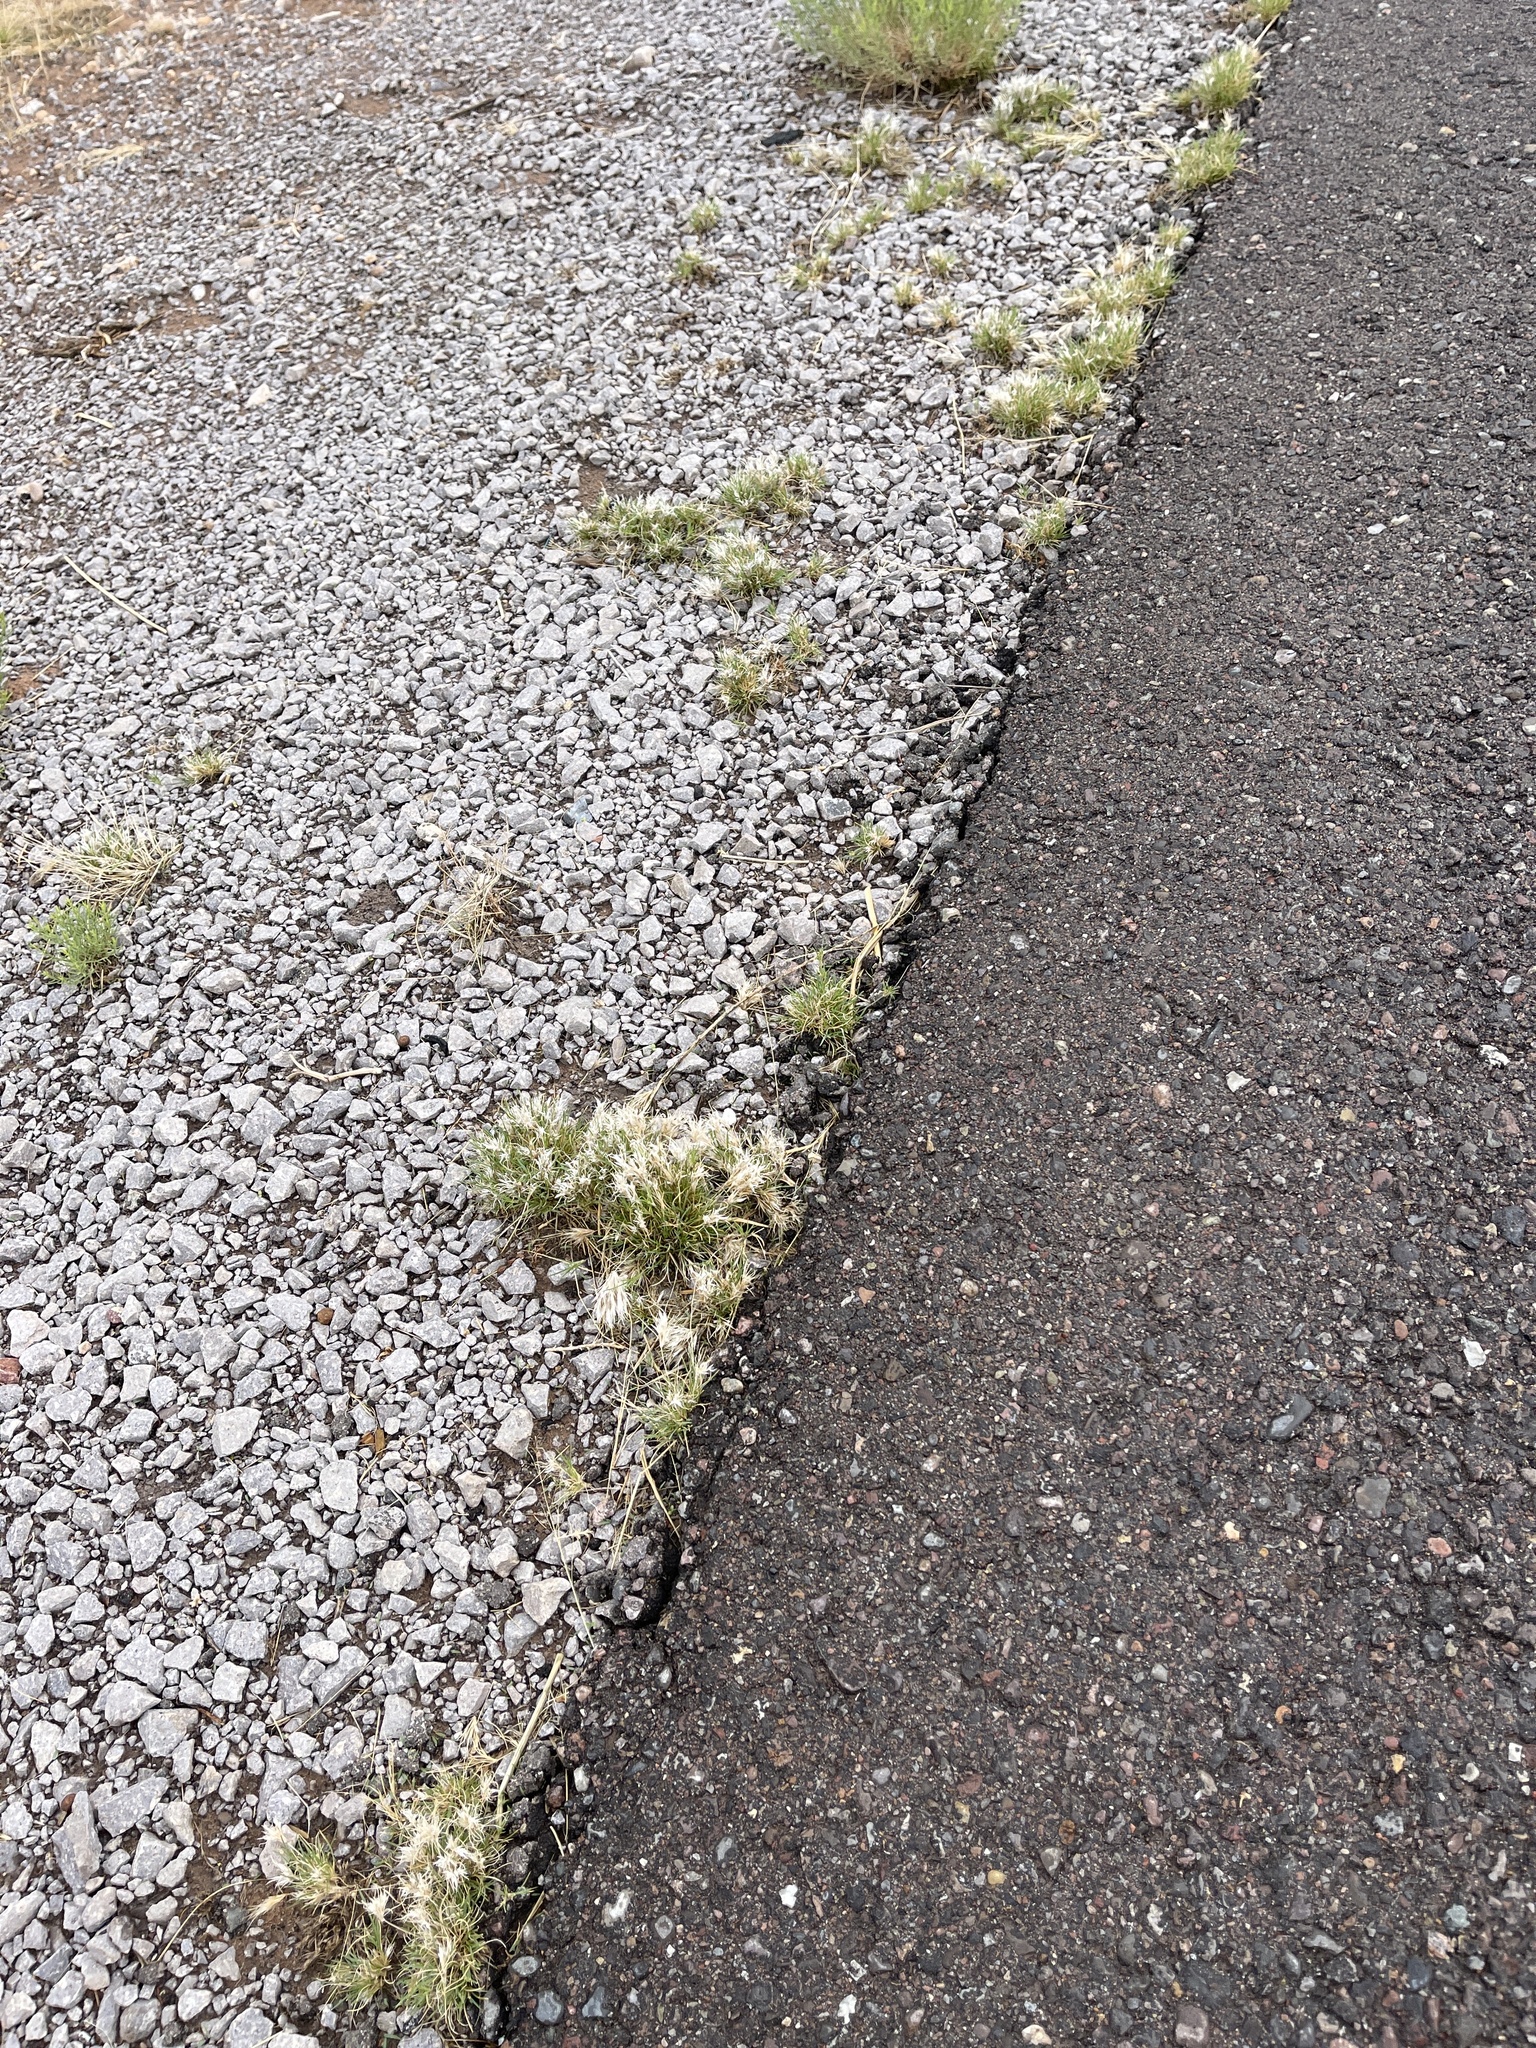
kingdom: Plantae
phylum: Tracheophyta
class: Liliopsida
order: Poales
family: Poaceae
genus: Dasyochloa
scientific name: Dasyochloa pulchella
